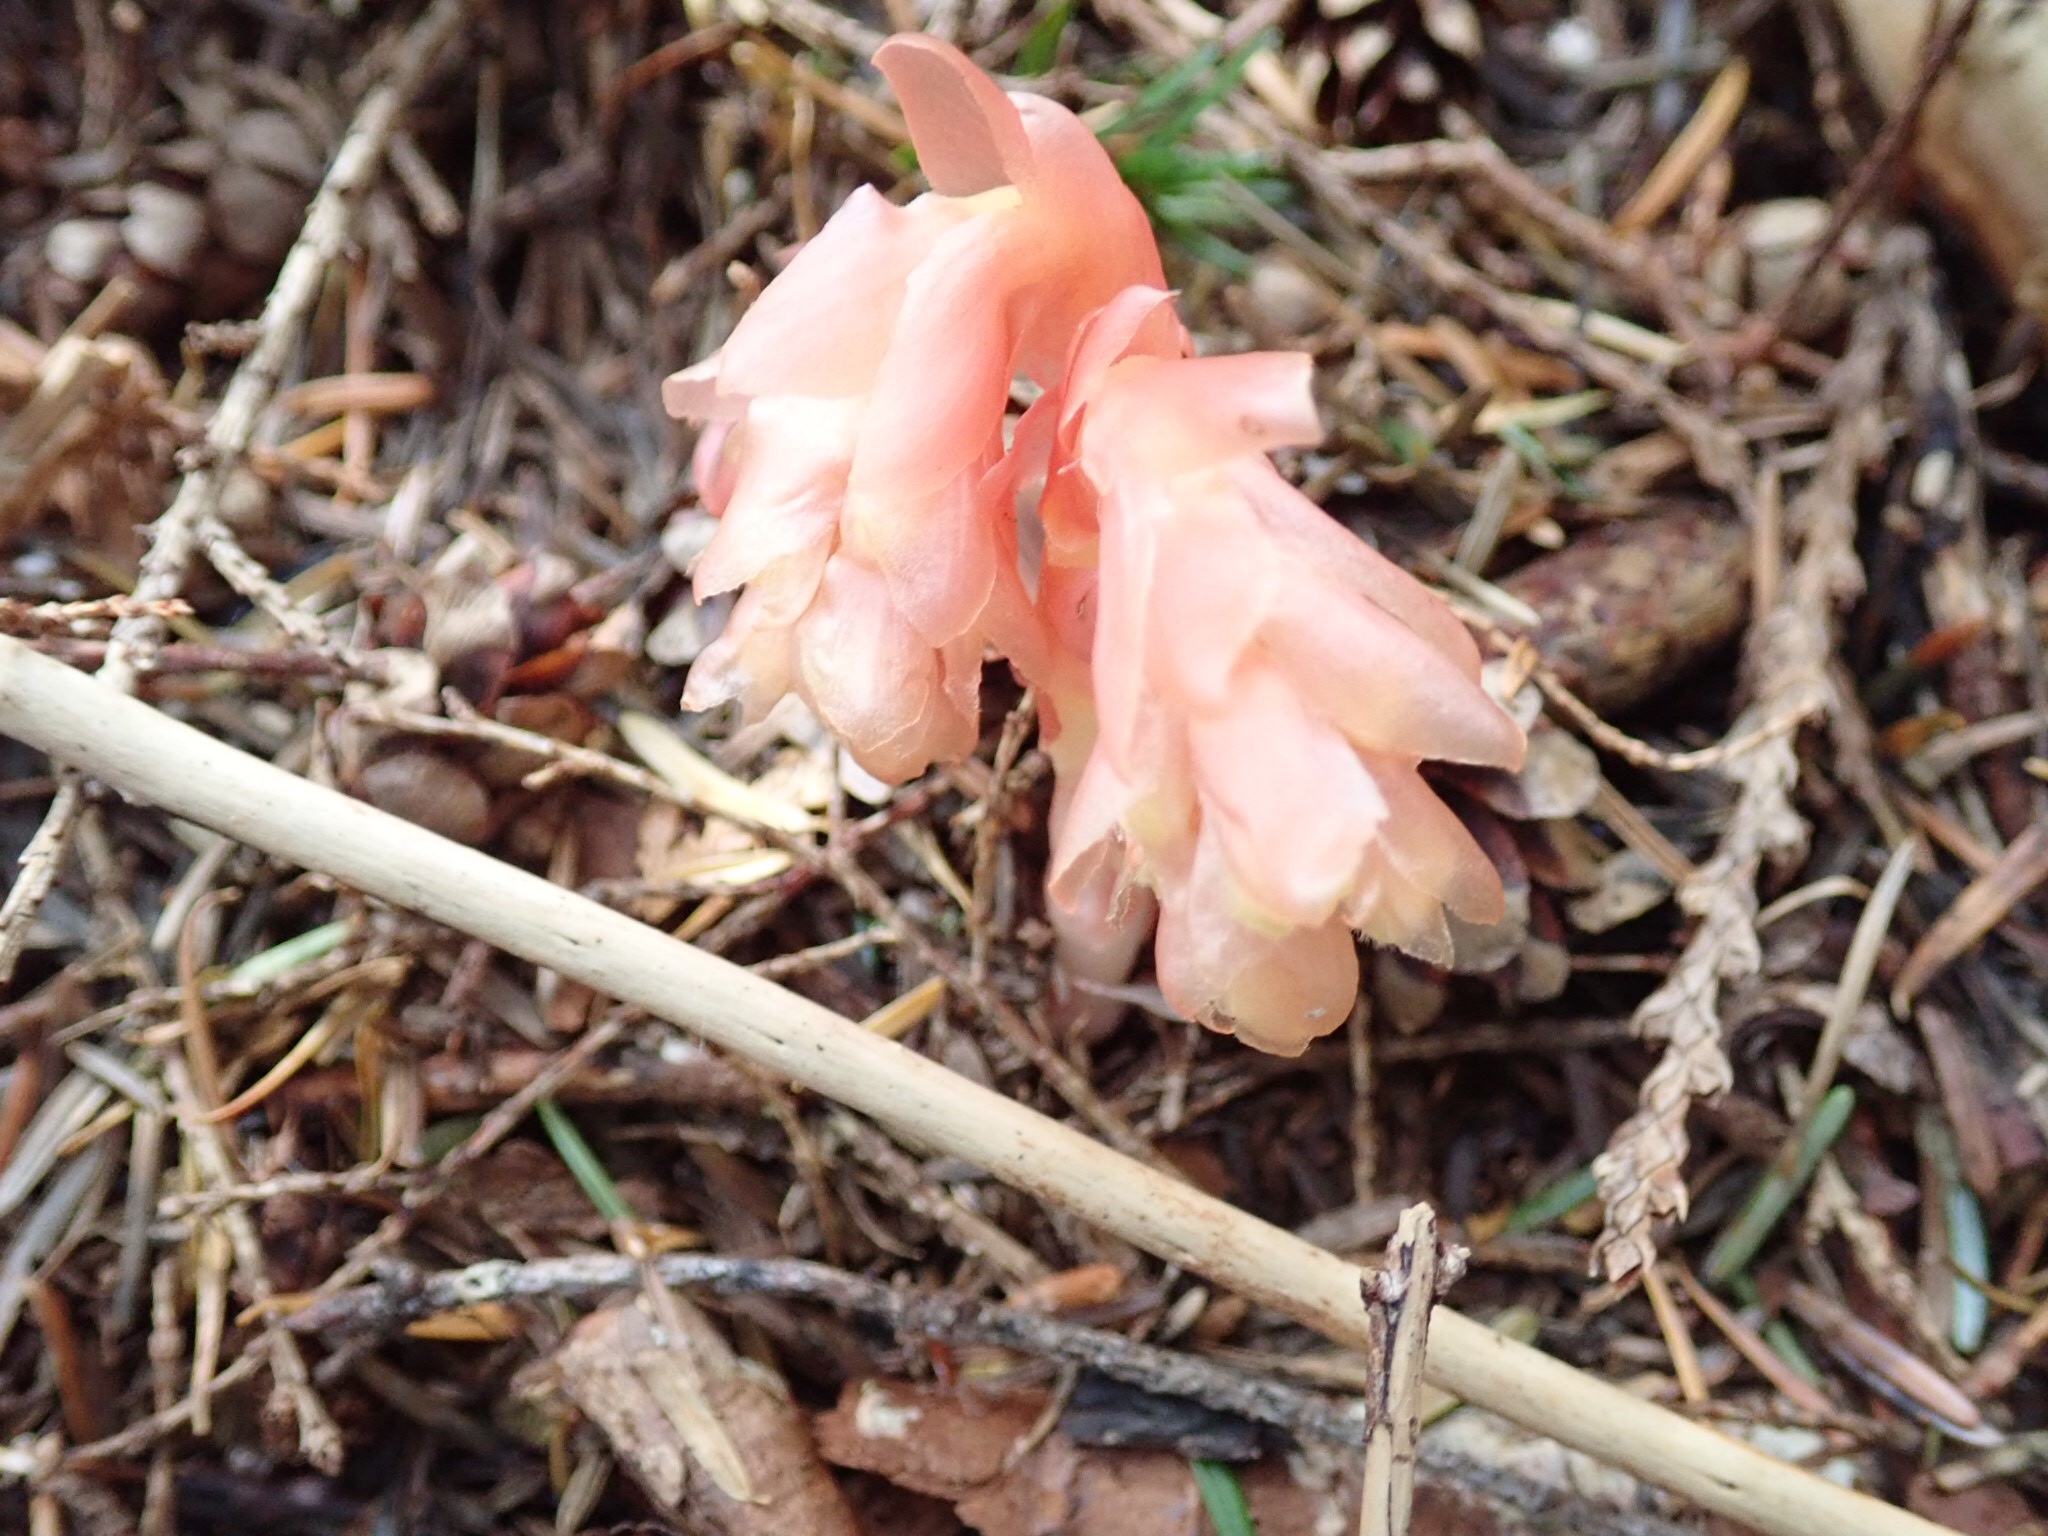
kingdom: Plantae
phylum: Tracheophyta
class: Magnoliopsida
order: Ericales
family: Ericaceae
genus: Hypopitys
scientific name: Hypopitys monotropa
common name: Yellow bird's-nest
